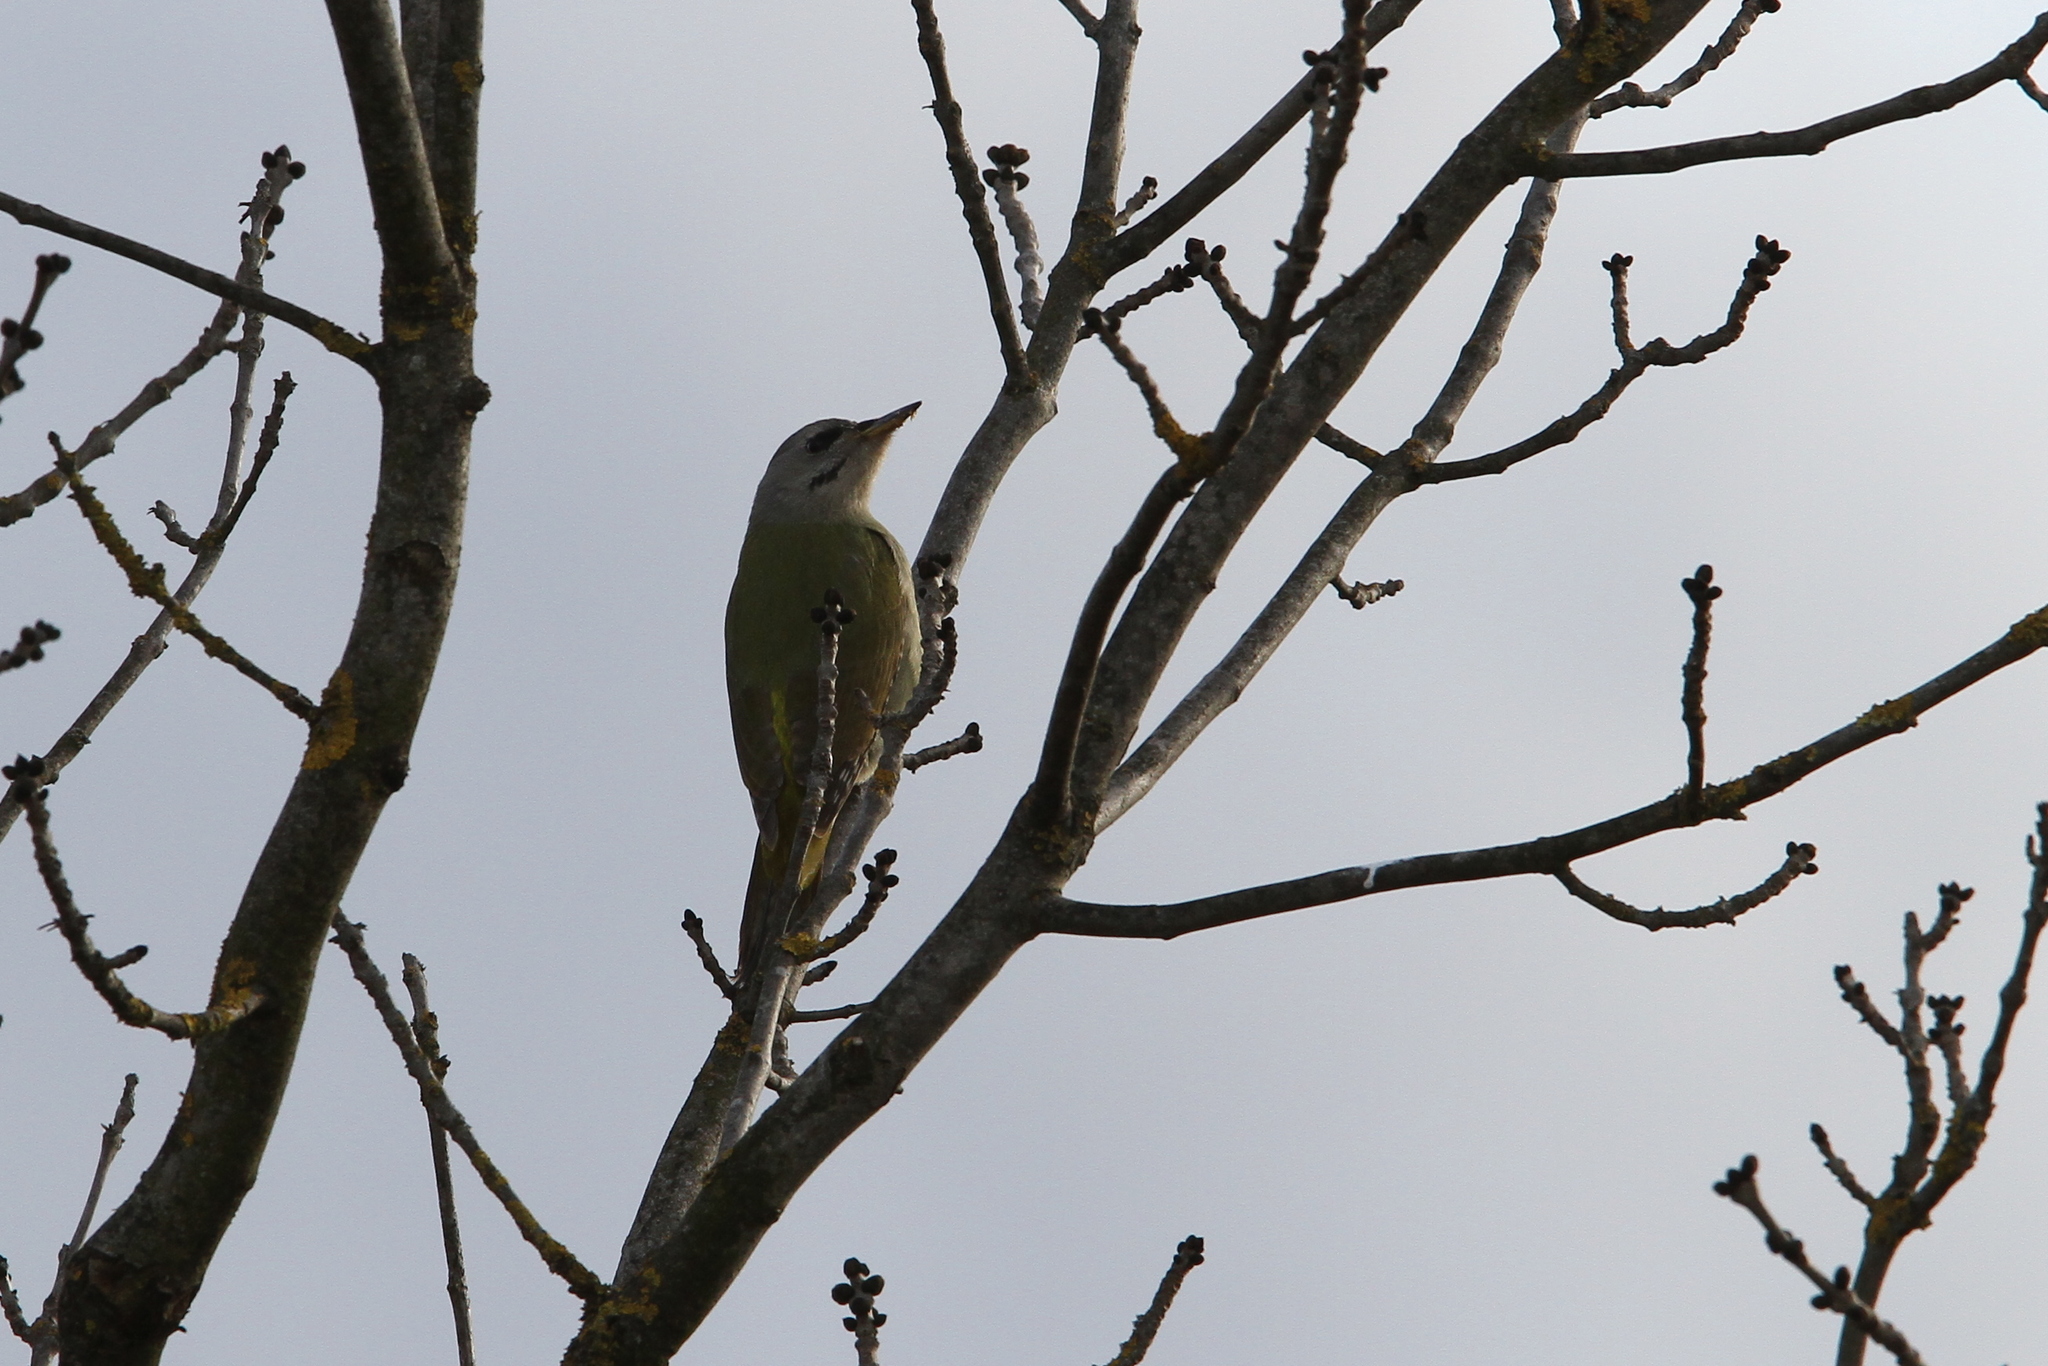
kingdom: Animalia
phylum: Chordata
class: Aves
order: Passeriformes
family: Phylloscopidae
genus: Phylloscopus
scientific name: Phylloscopus collybita
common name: Common chiffchaff
